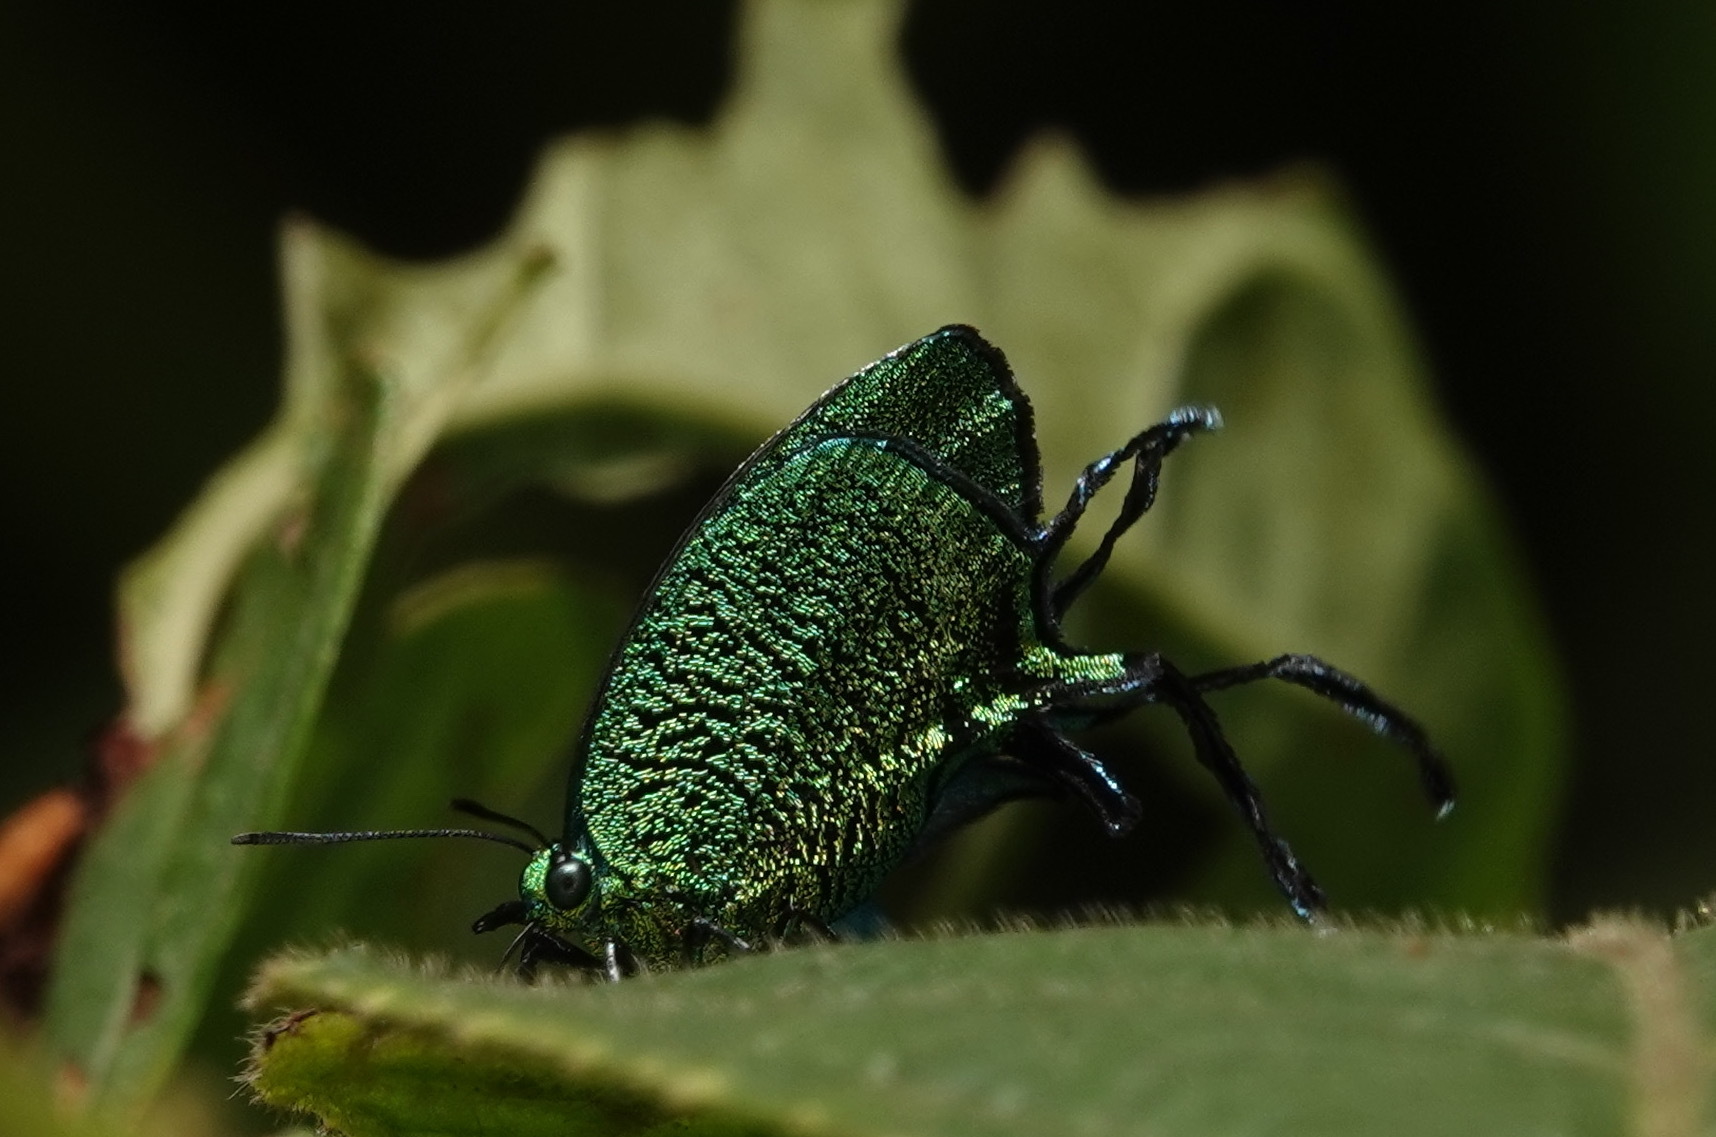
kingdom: Animalia
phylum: Arthropoda
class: Insecta
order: Lepidoptera
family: Lycaenidae
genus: Arcas
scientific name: Arcas imperialis
